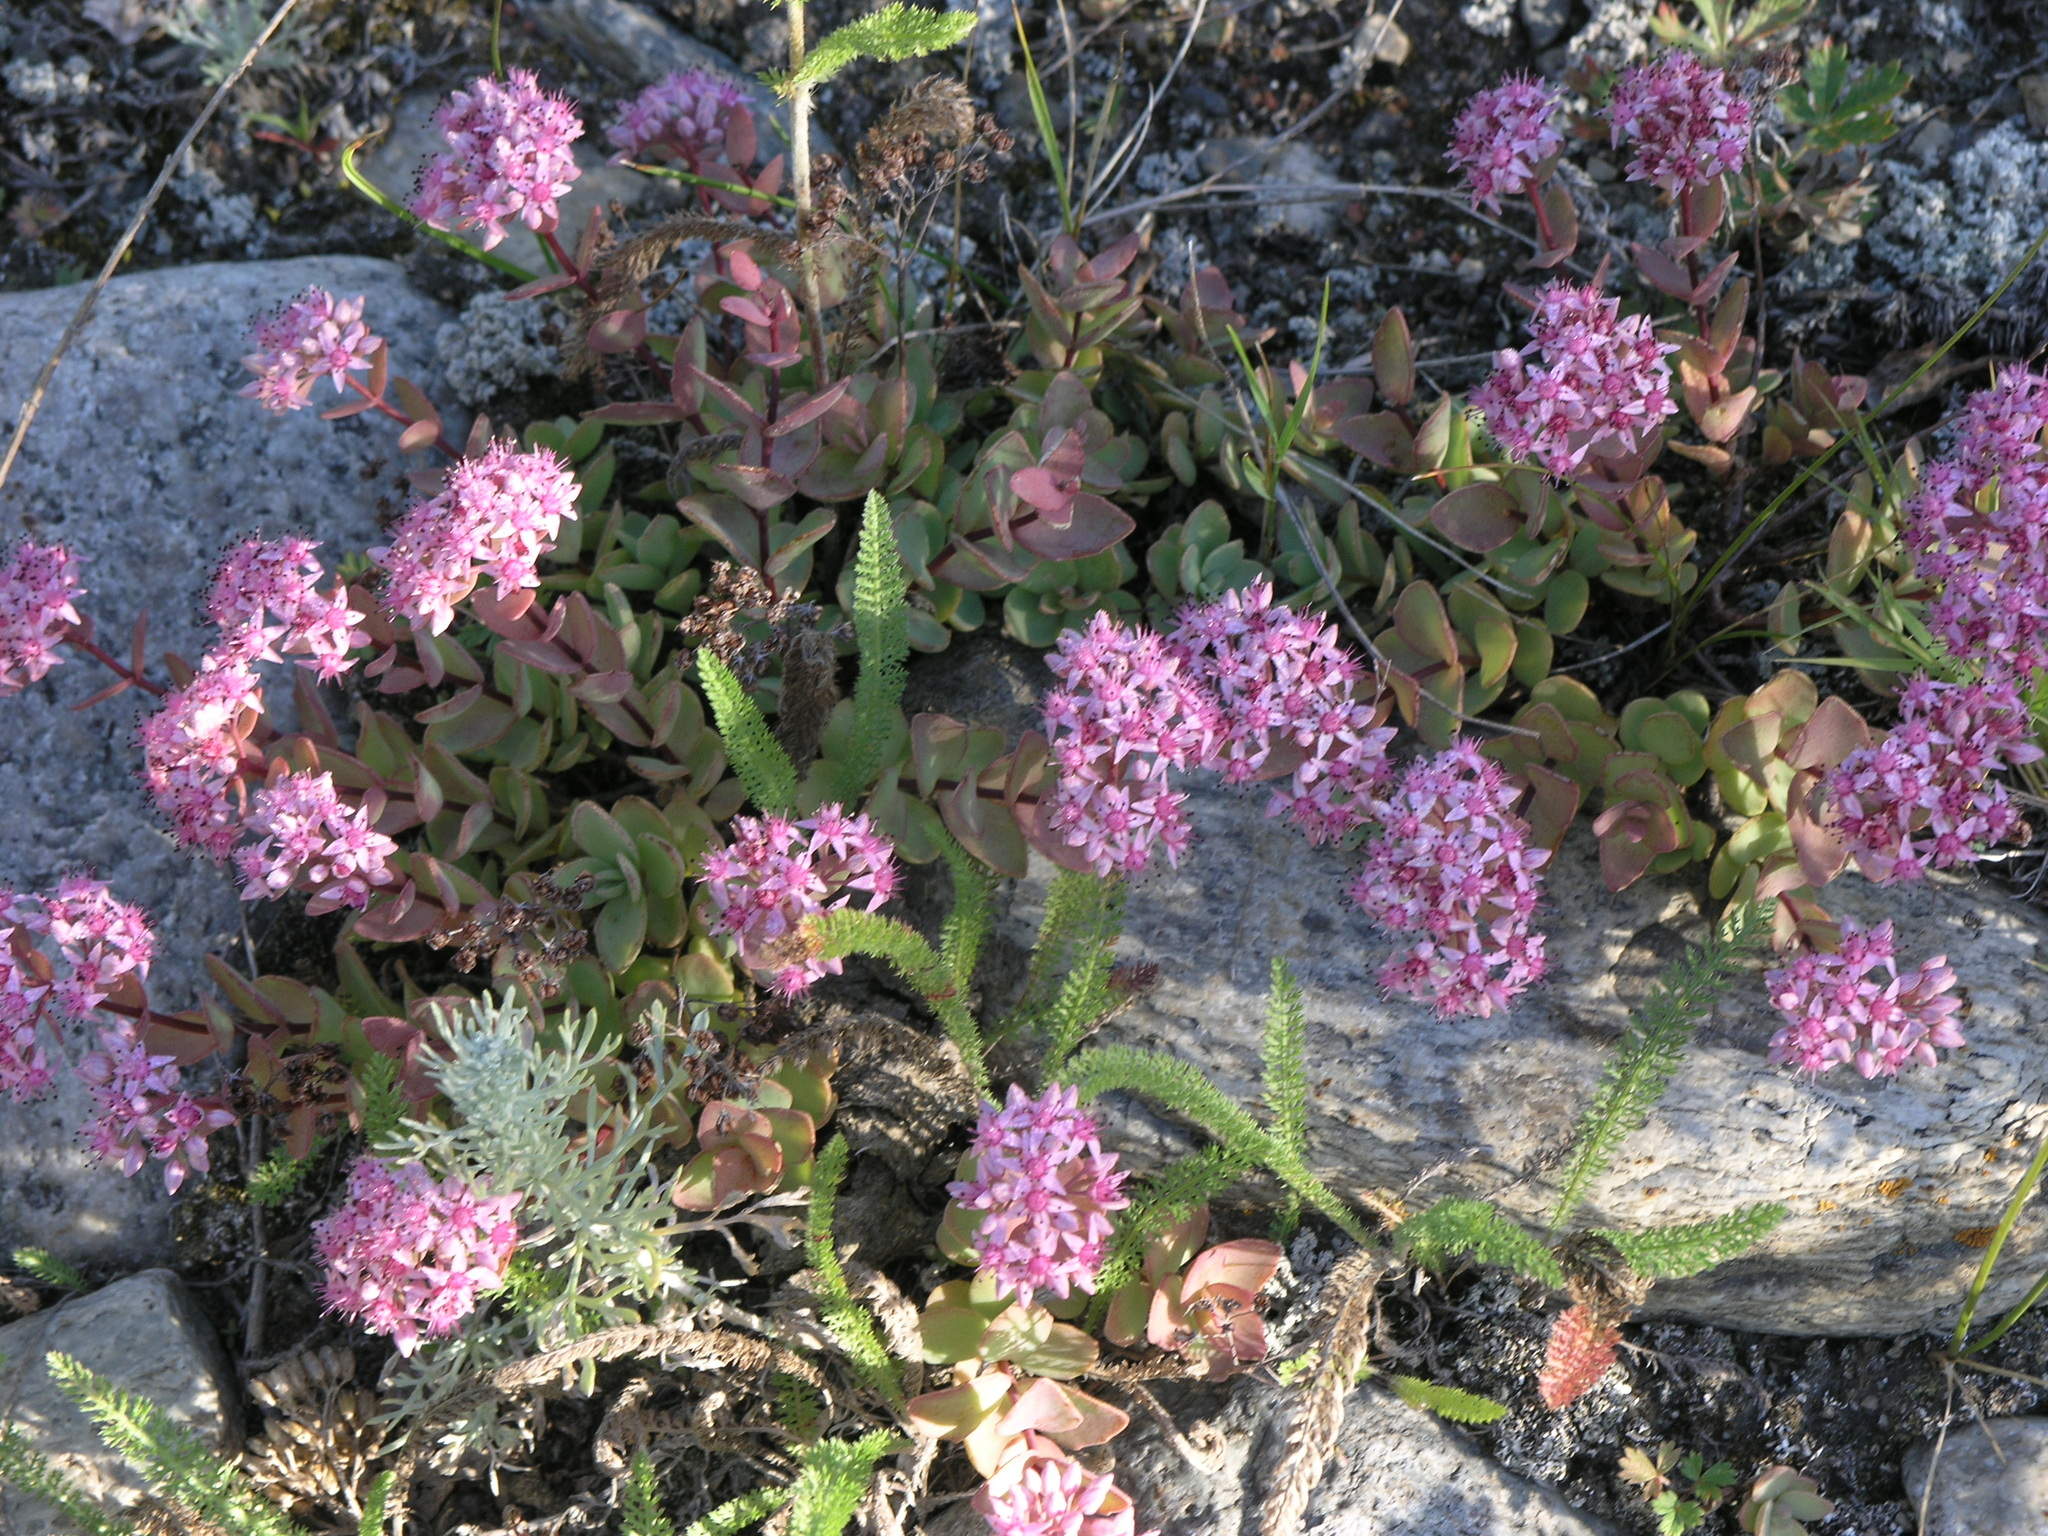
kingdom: Plantae
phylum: Tracheophyta
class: Magnoliopsida
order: Saxifragales
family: Crassulaceae
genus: Hylotelephium
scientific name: Hylotelephium ewersii
